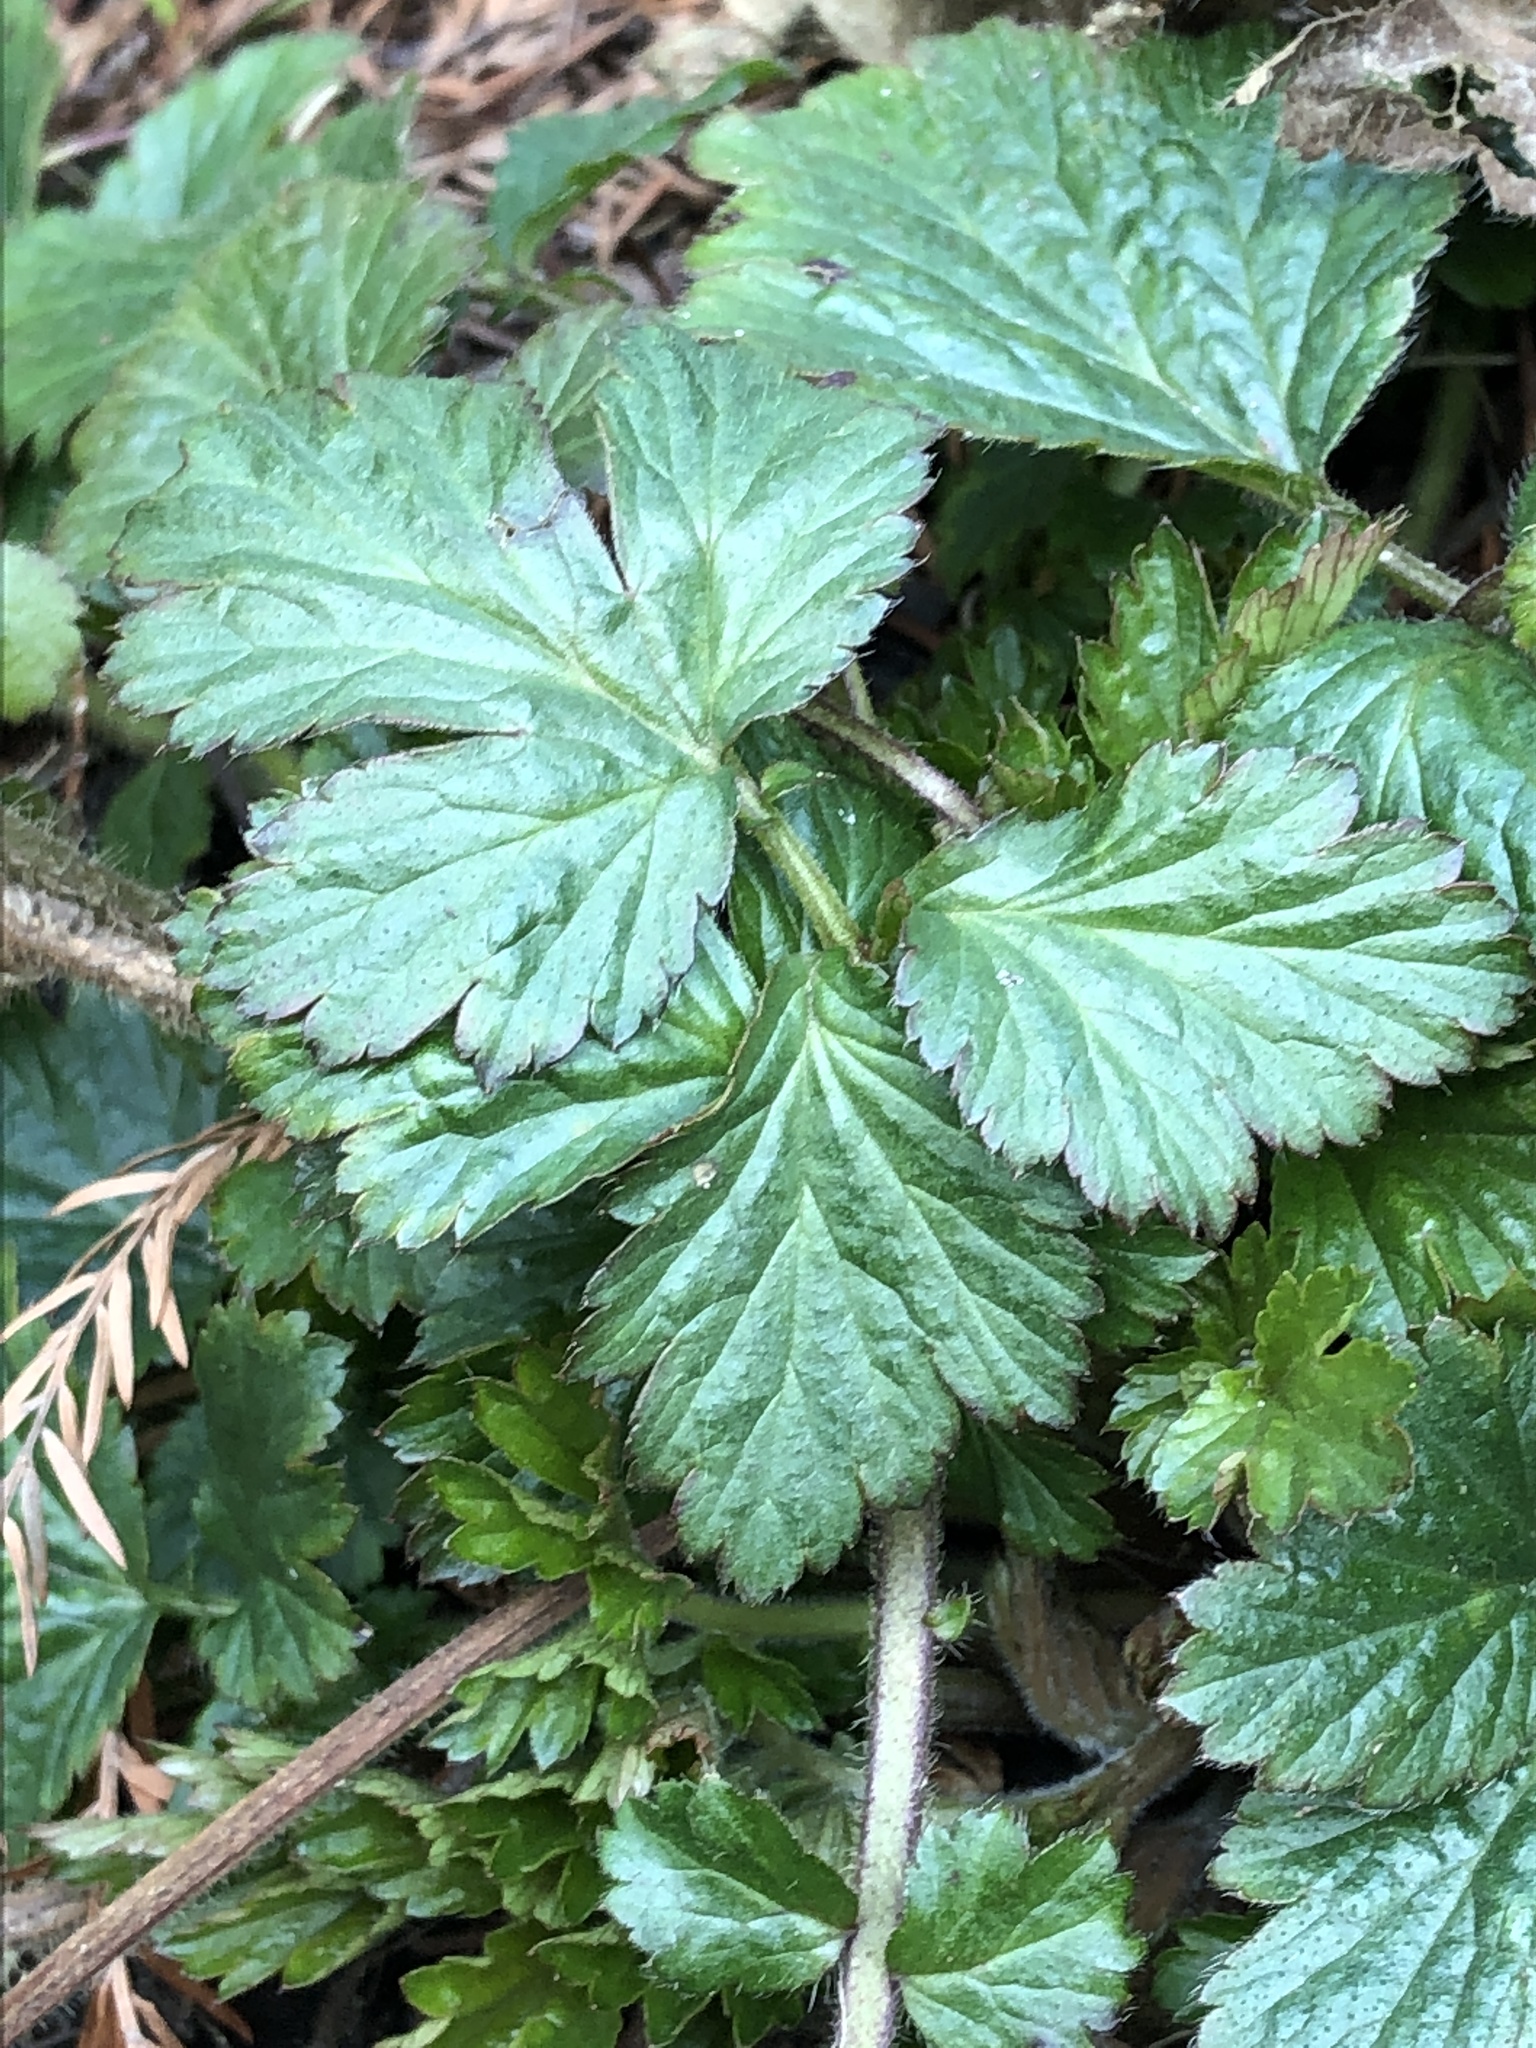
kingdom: Plantae
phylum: Tracheophyta
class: Magnoliopsida
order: Rosales
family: Rosaceae
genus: Geum
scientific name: Geum urbanum
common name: Wood avens
